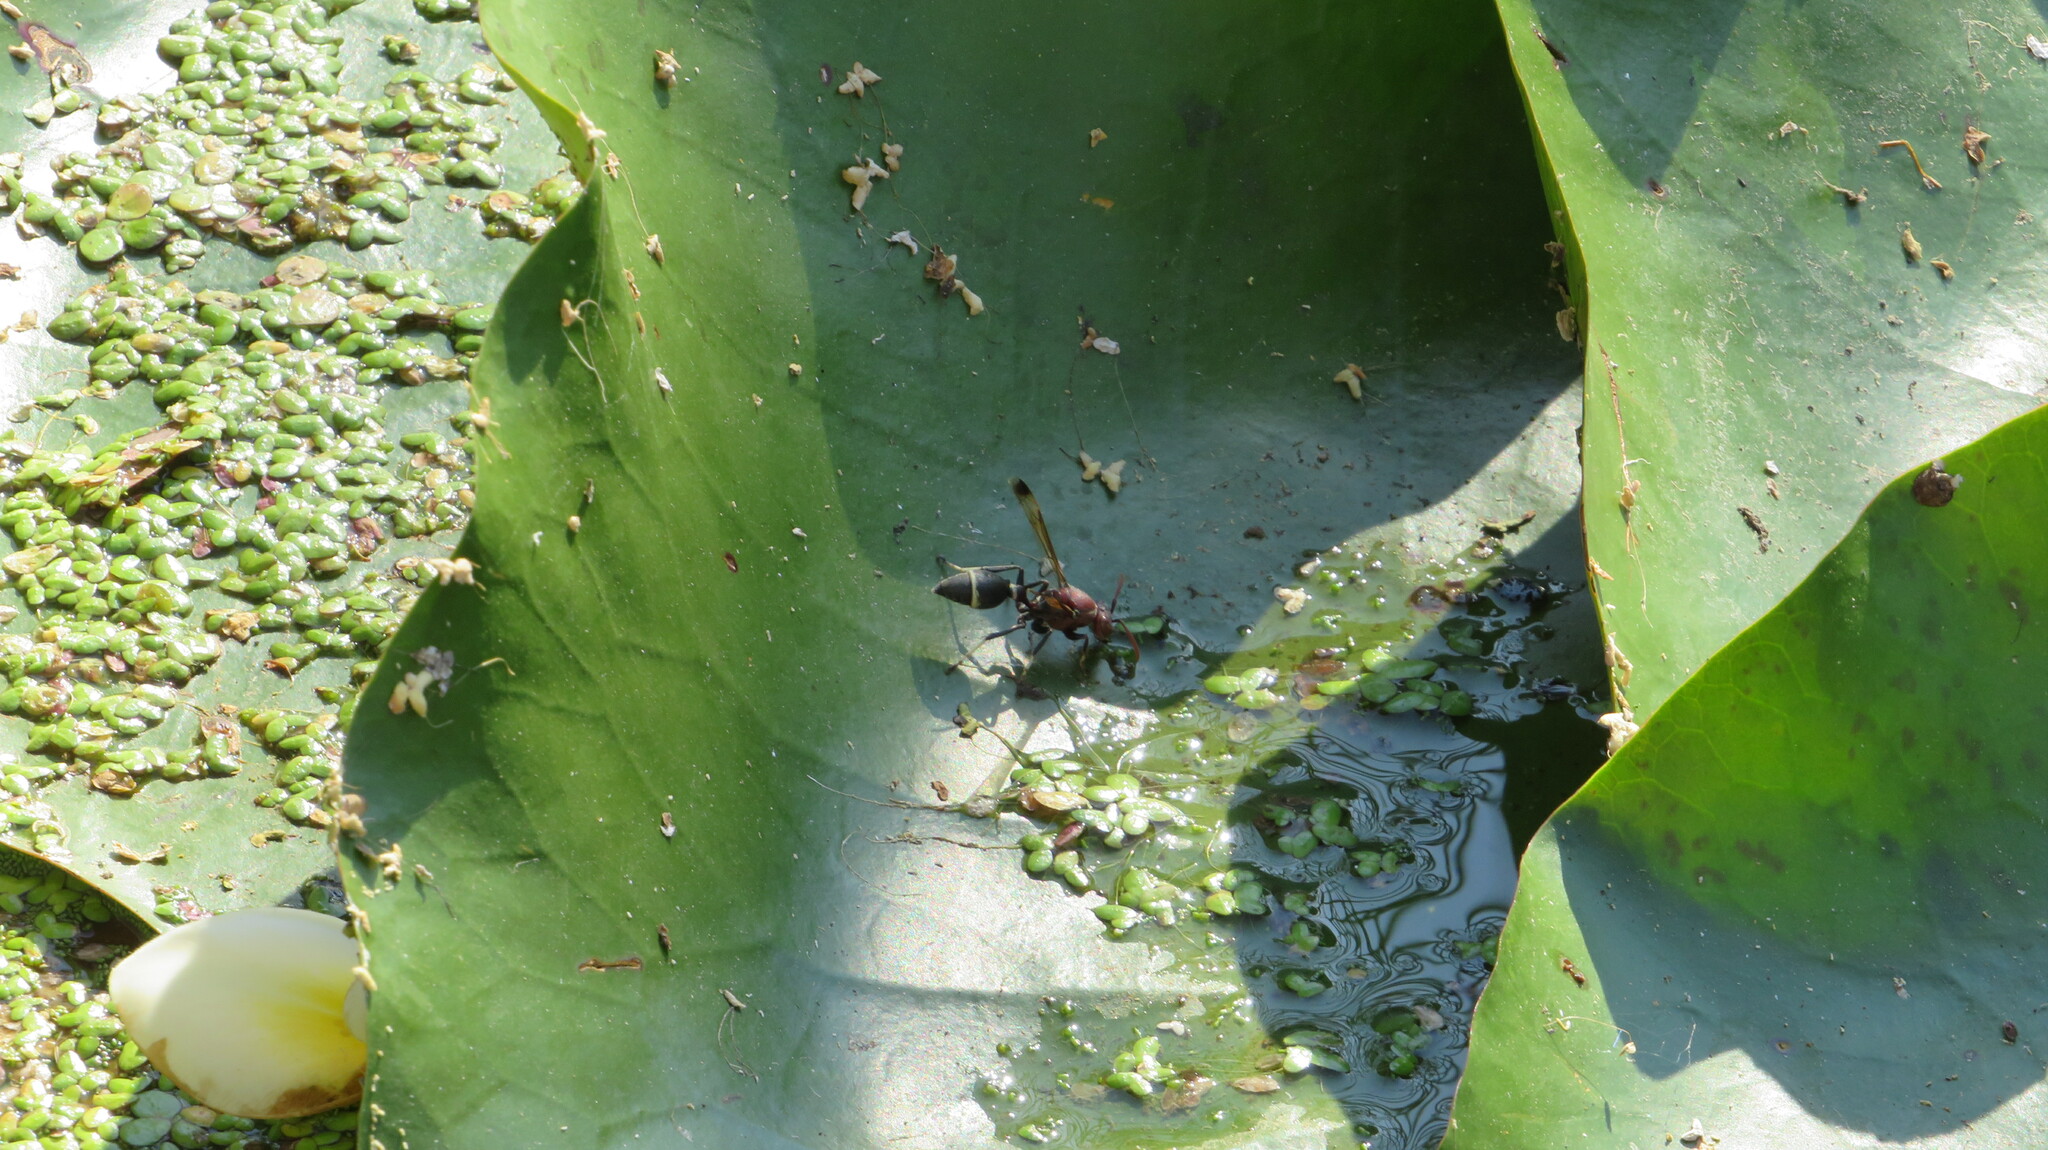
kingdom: Animalia
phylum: Arthropoda
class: Insecta
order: Hymenoptera
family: Vespidae
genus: Ropalidia
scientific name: Ropalidia magnanima
